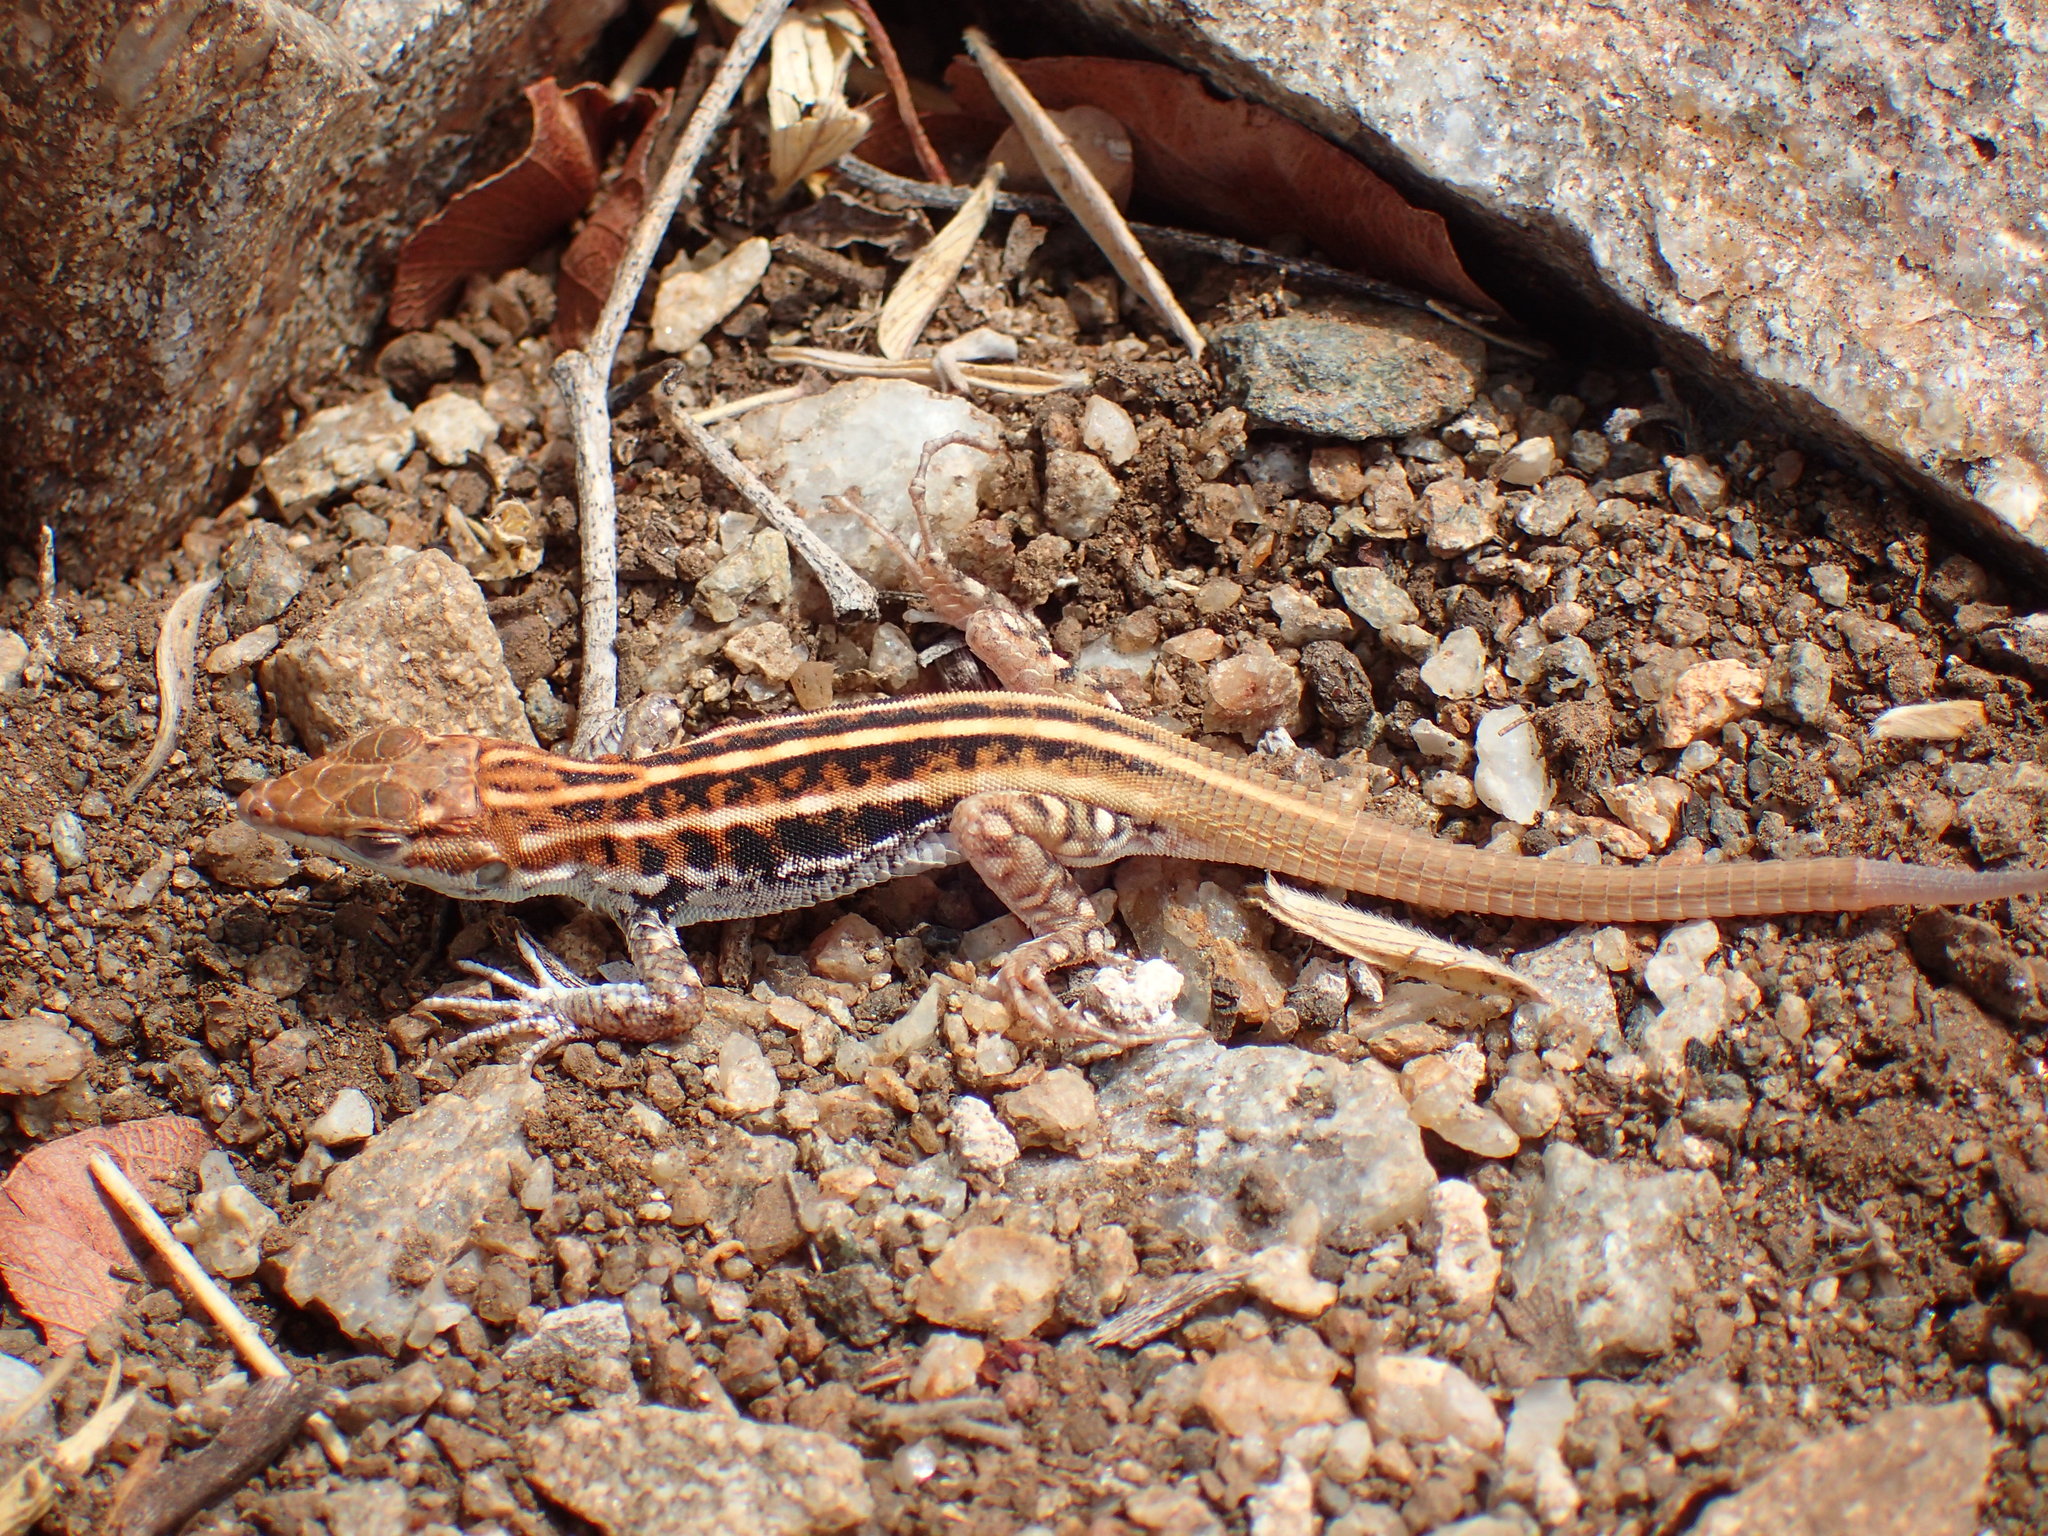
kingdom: Animalia
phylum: Chordata
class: Squamata
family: Lacertidae
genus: Heliobolus
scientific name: Heliobolus lugubris
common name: Bushveld lizard
